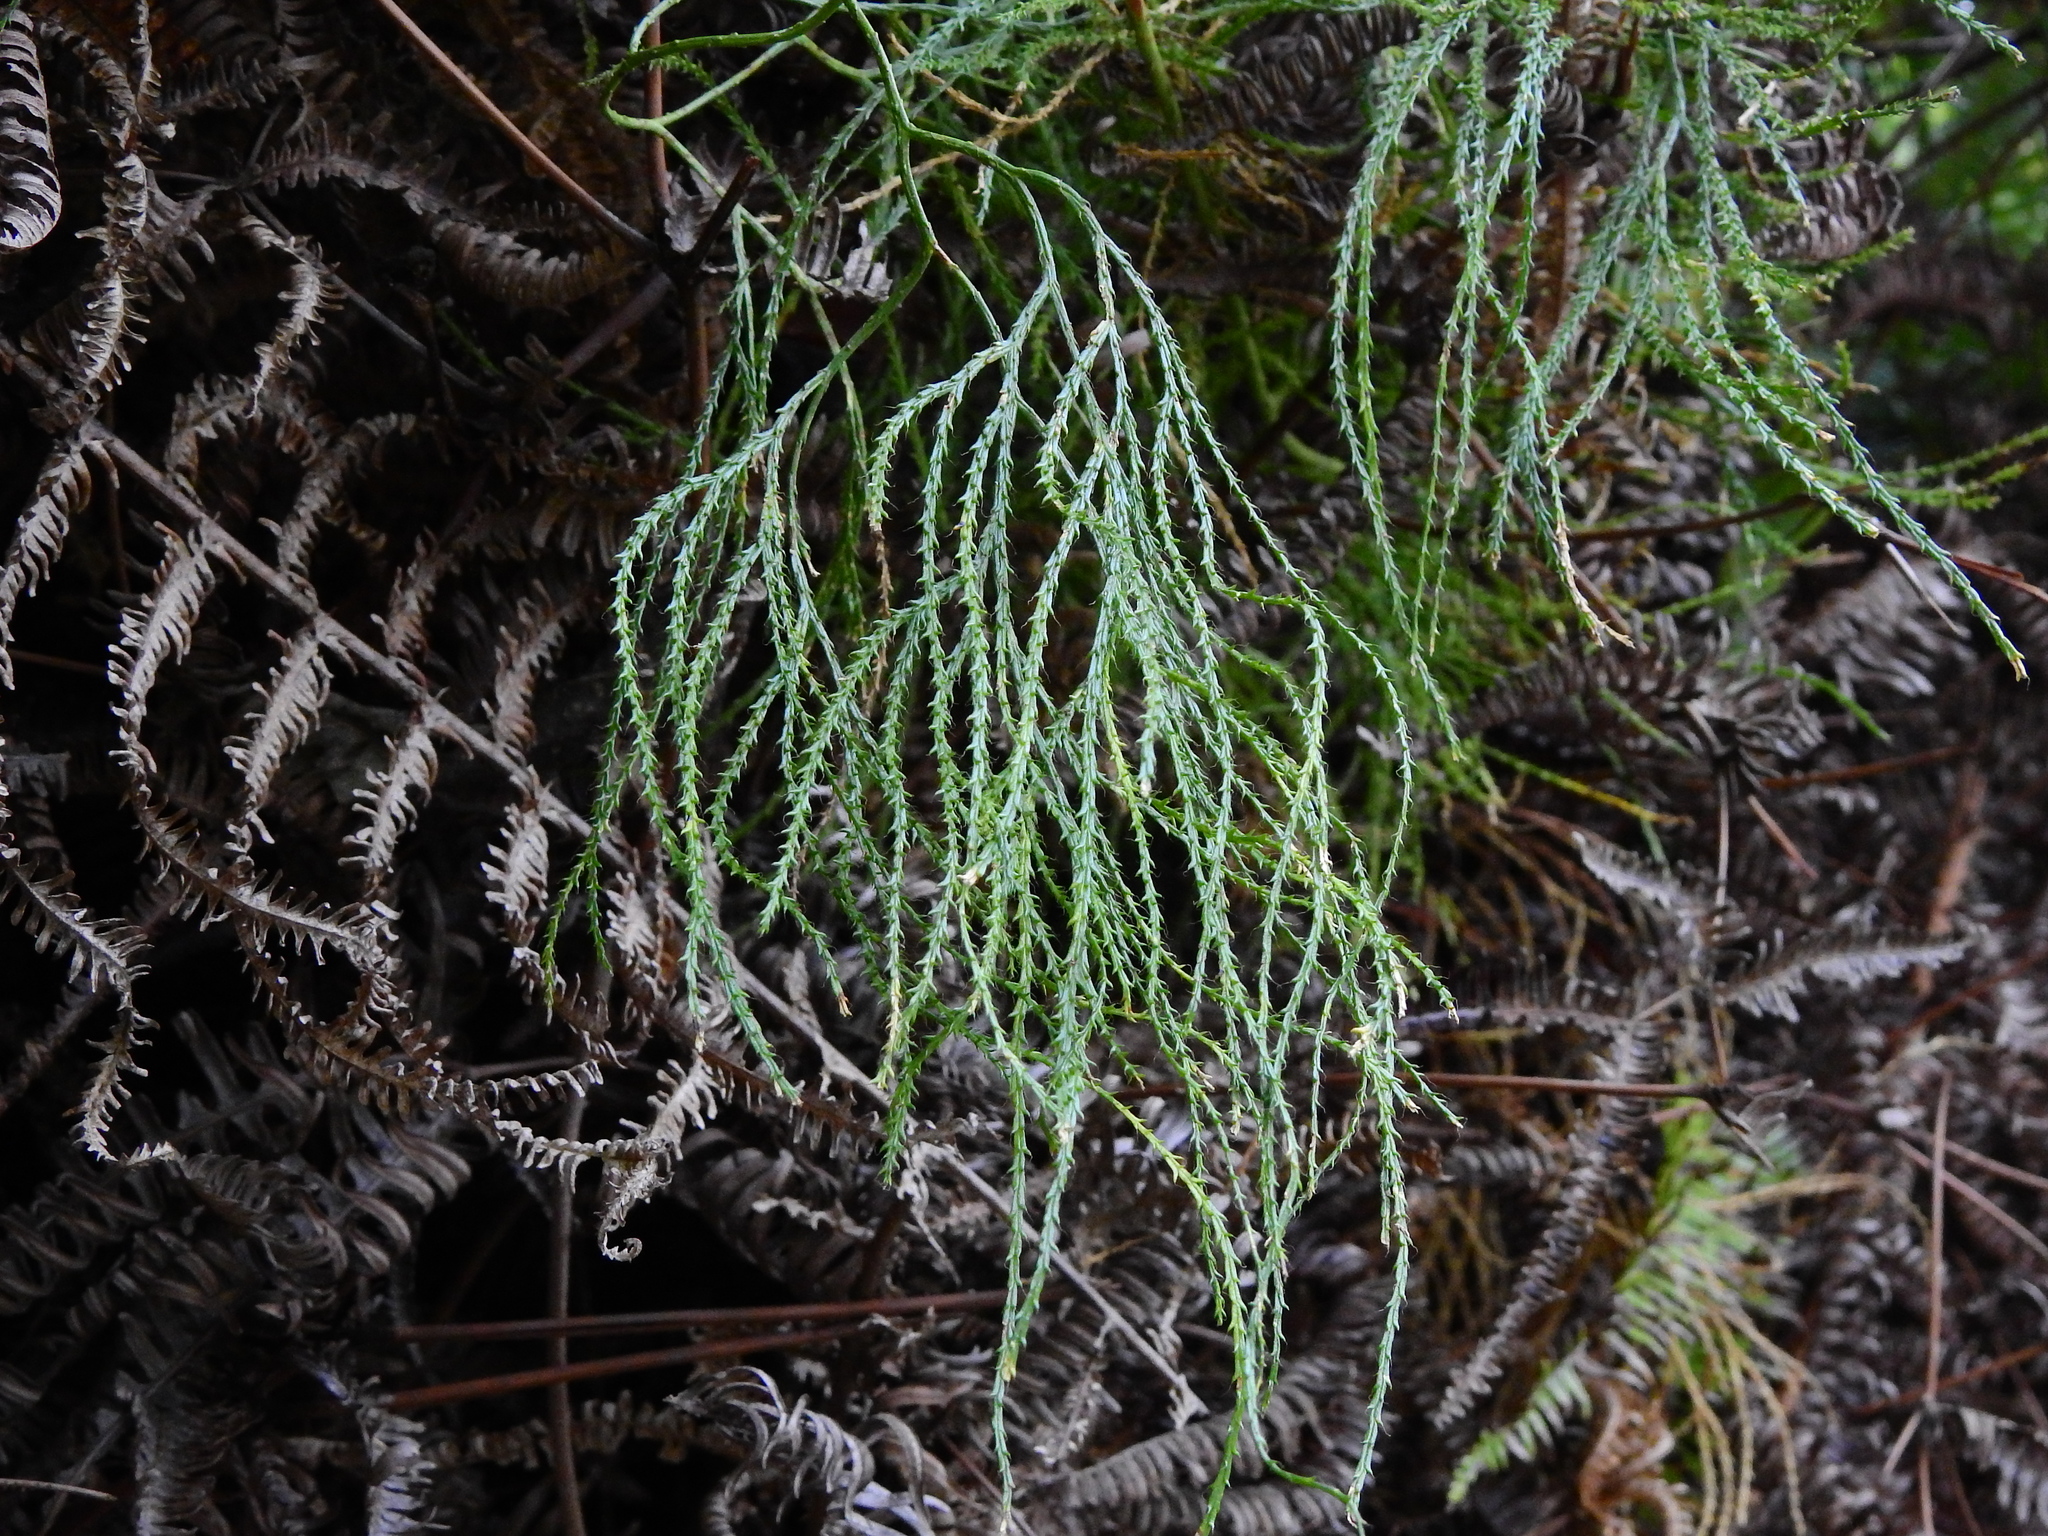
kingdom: Plantae
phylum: Tracheophyta
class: Lycopodiopsida
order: Lycopodiales
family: Lycopodiaceae
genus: Lycopodiastrum
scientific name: Lycopodiastrum casuarinoides
